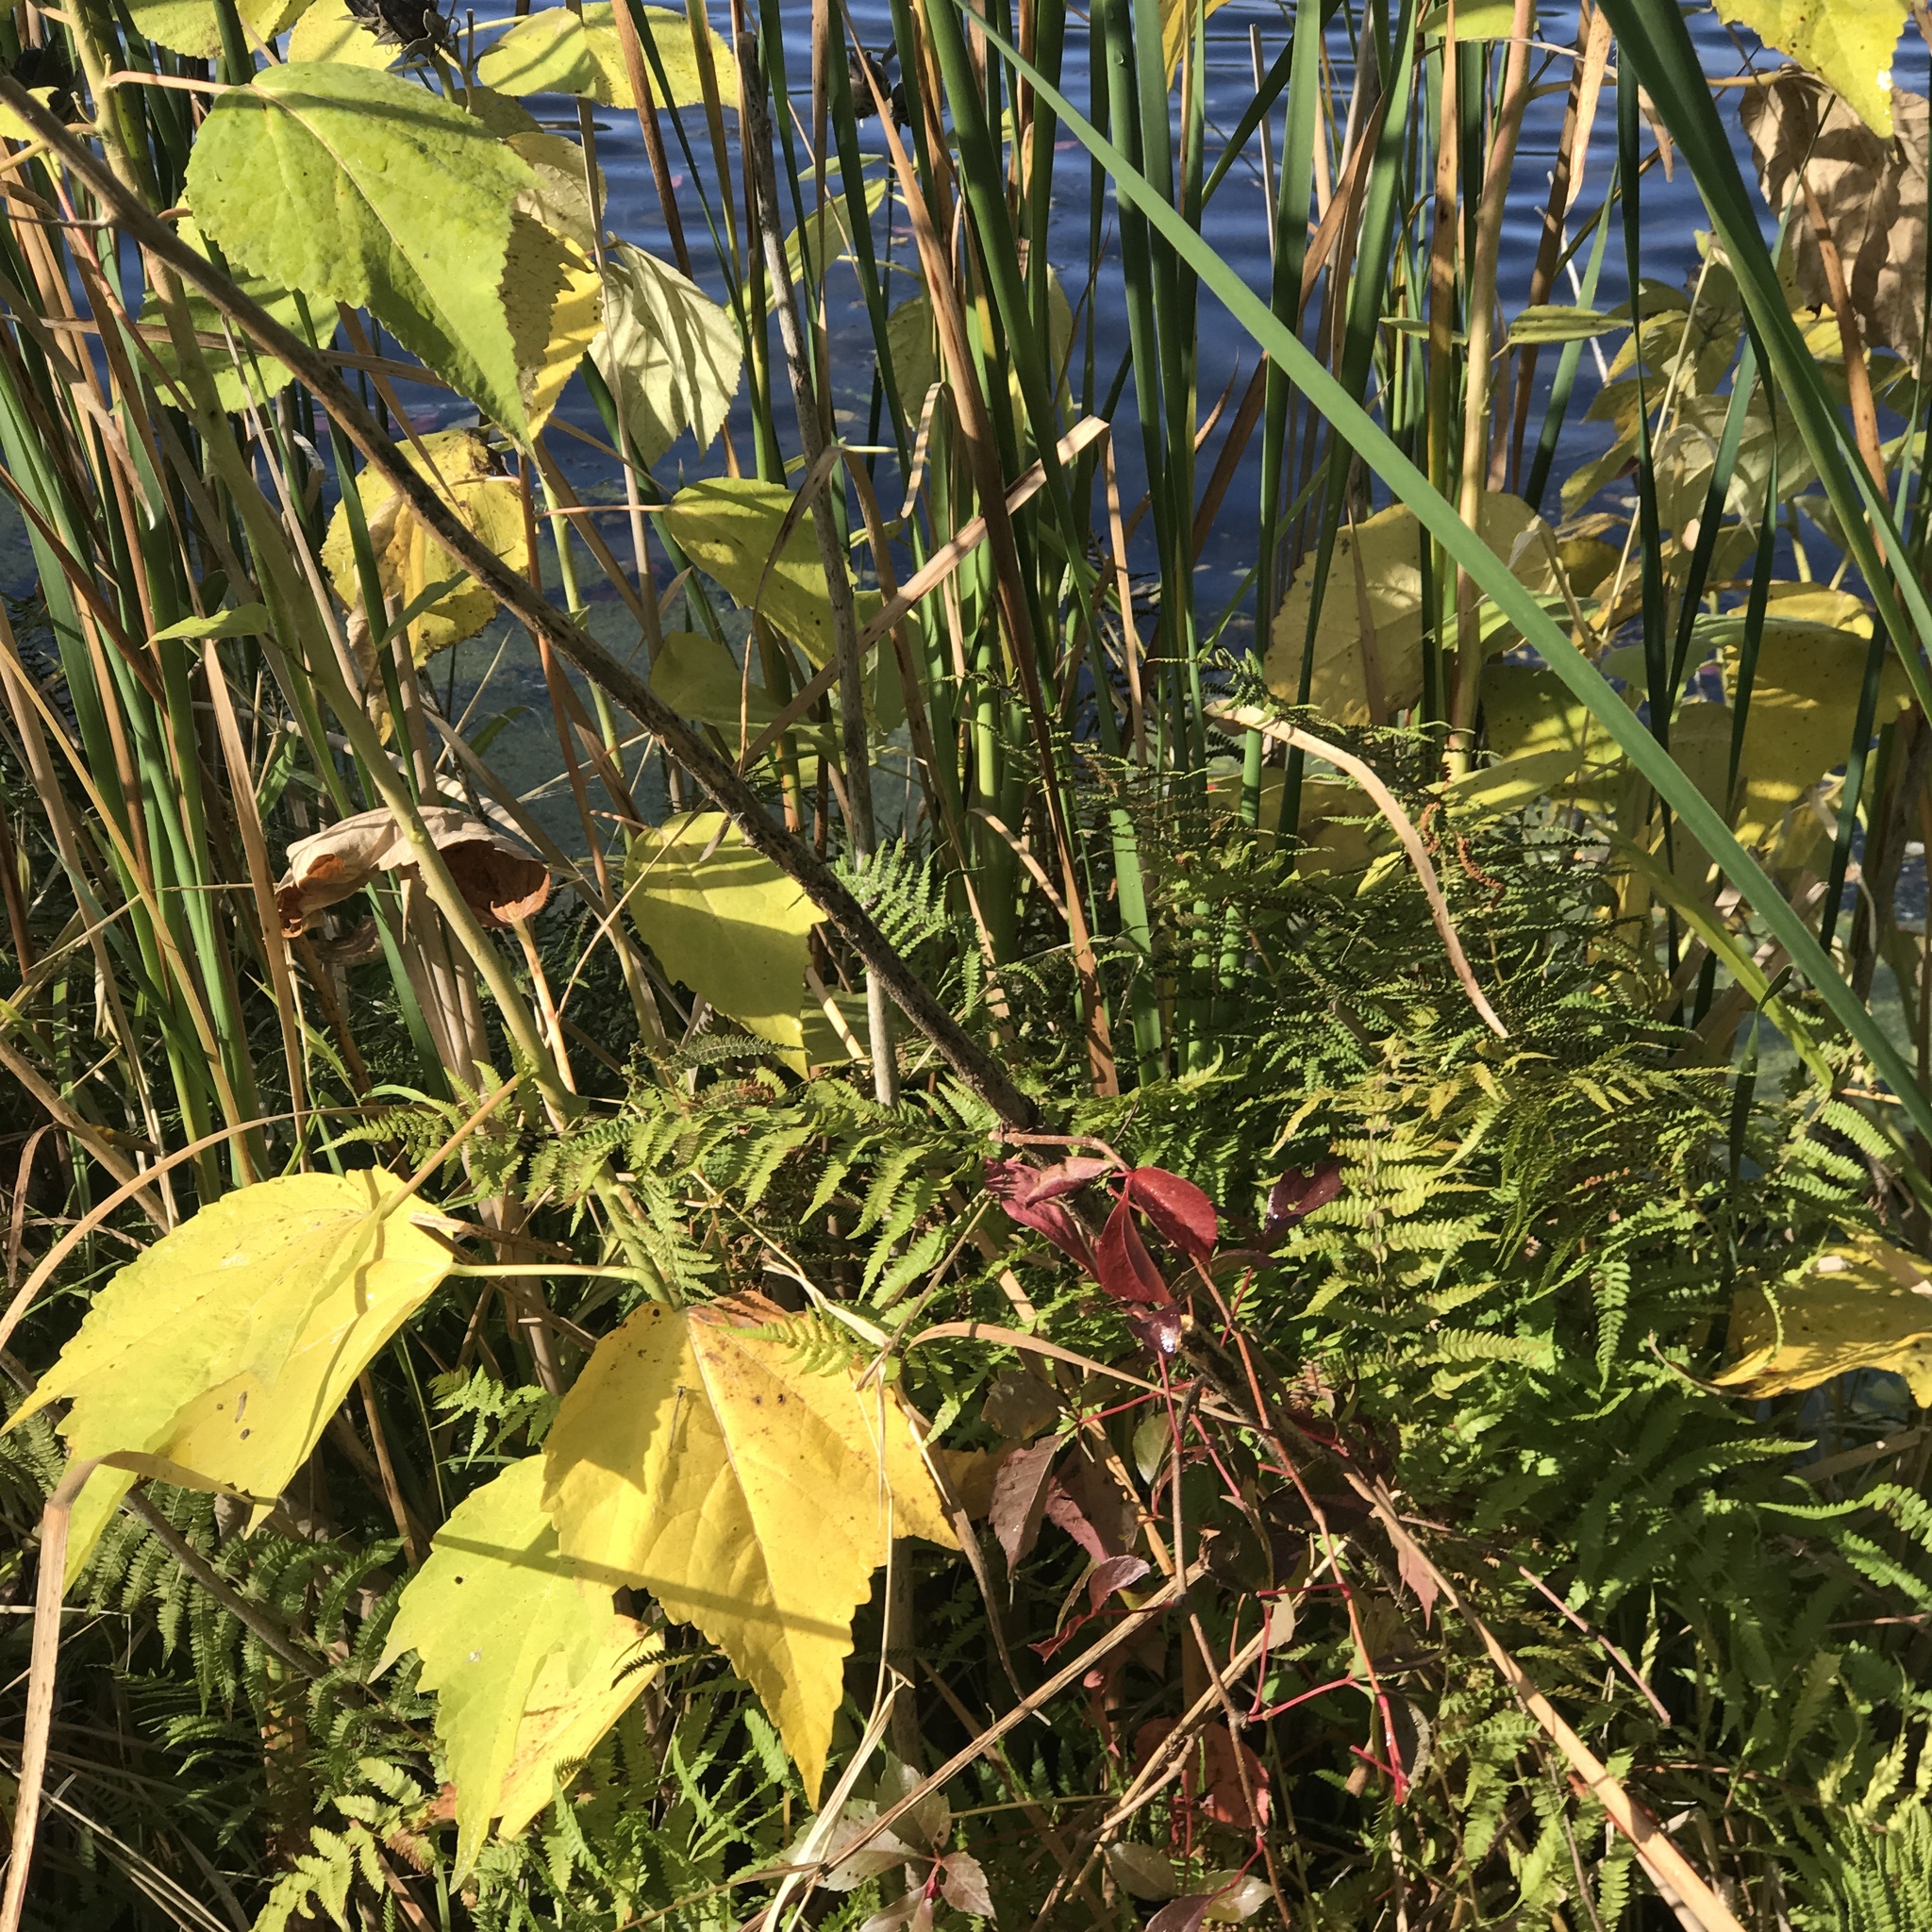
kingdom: Plantae
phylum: Tracheophyta
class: Polypodiopsida
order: Polypodiales
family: Thelypteridaceae
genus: Thelypteris
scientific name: Thelypteris palustris
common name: Marsh fern
